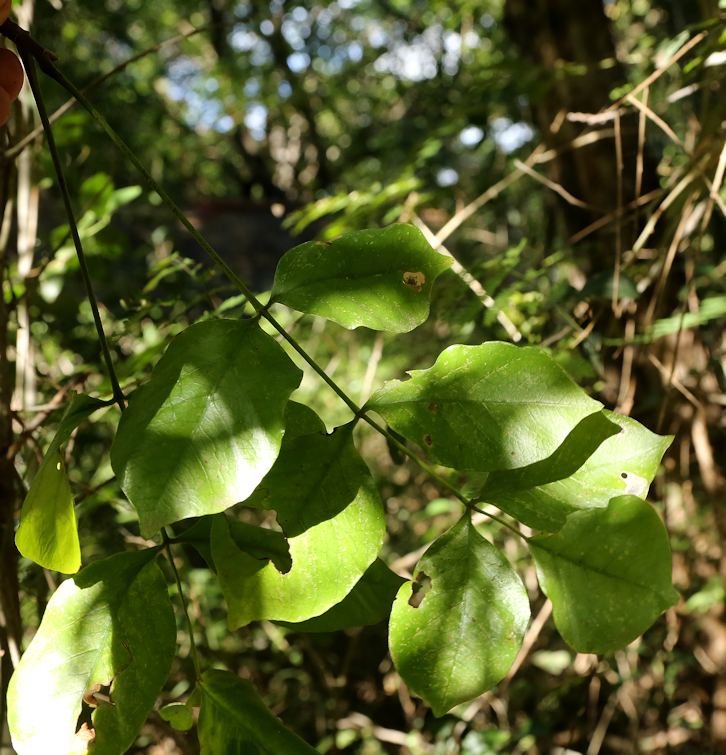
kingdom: Plantae
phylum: Tracheophyta
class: Magnoliopsida
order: Sapindales
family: Anacardiaceae
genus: Lannea
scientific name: Lannea schweinfurthii
